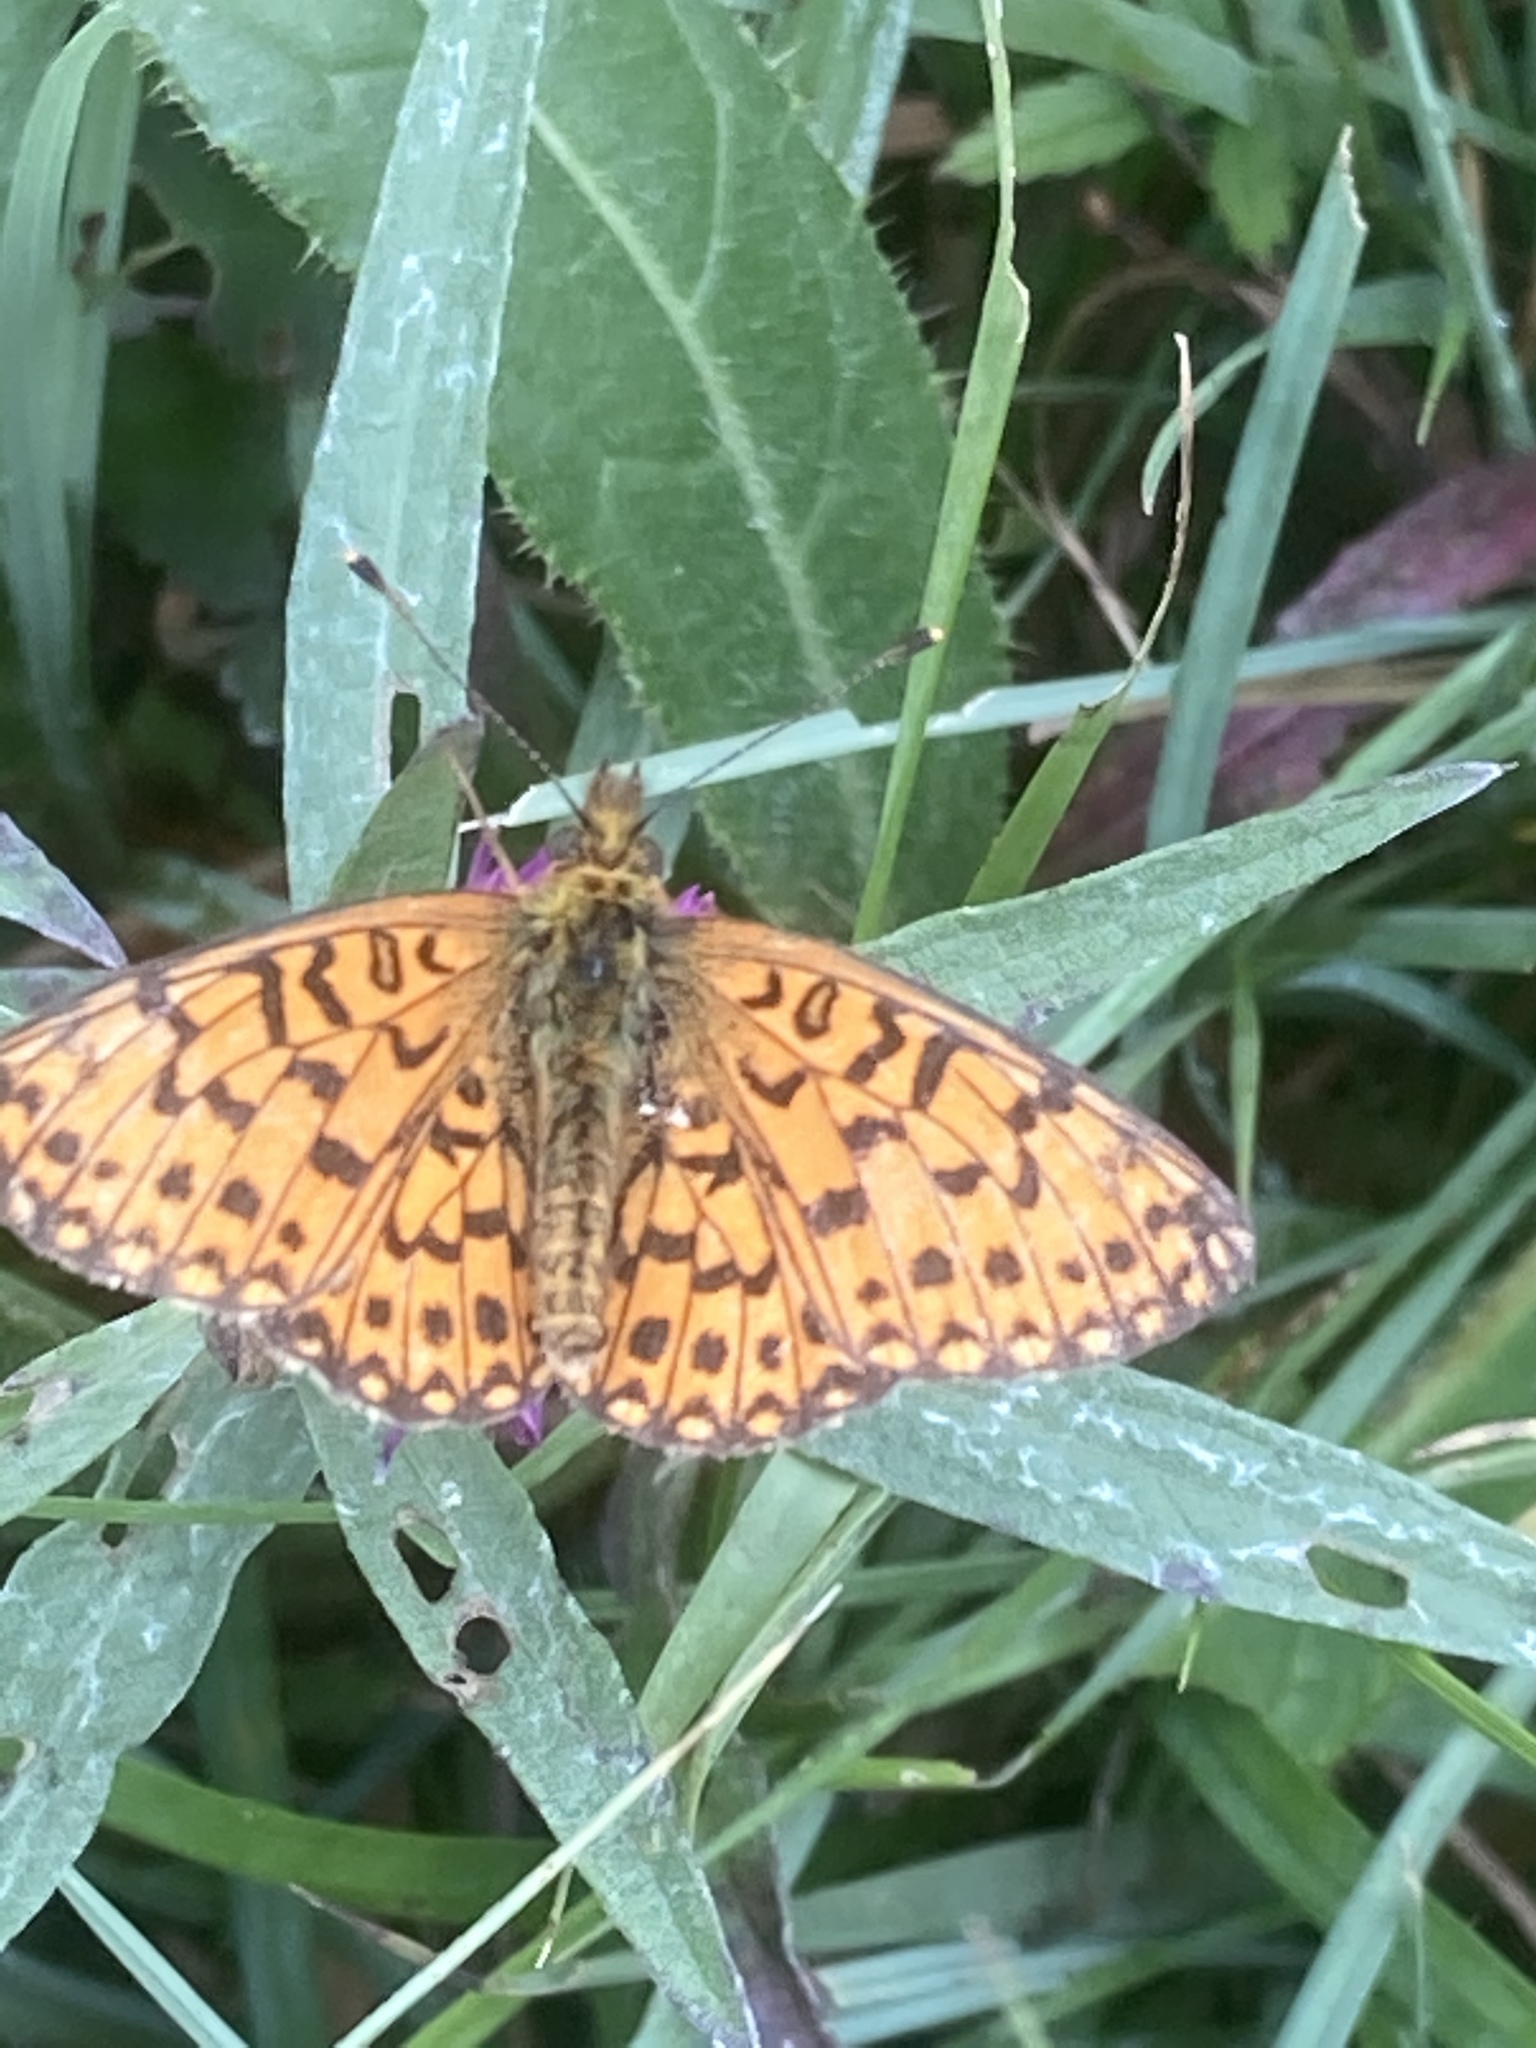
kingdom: Animalia
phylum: Arthropoda
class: Insecta
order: Lepidoptera
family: Nymphalidae
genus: Boloria
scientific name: Boloria selene
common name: Small pearl-bordered fritillary
